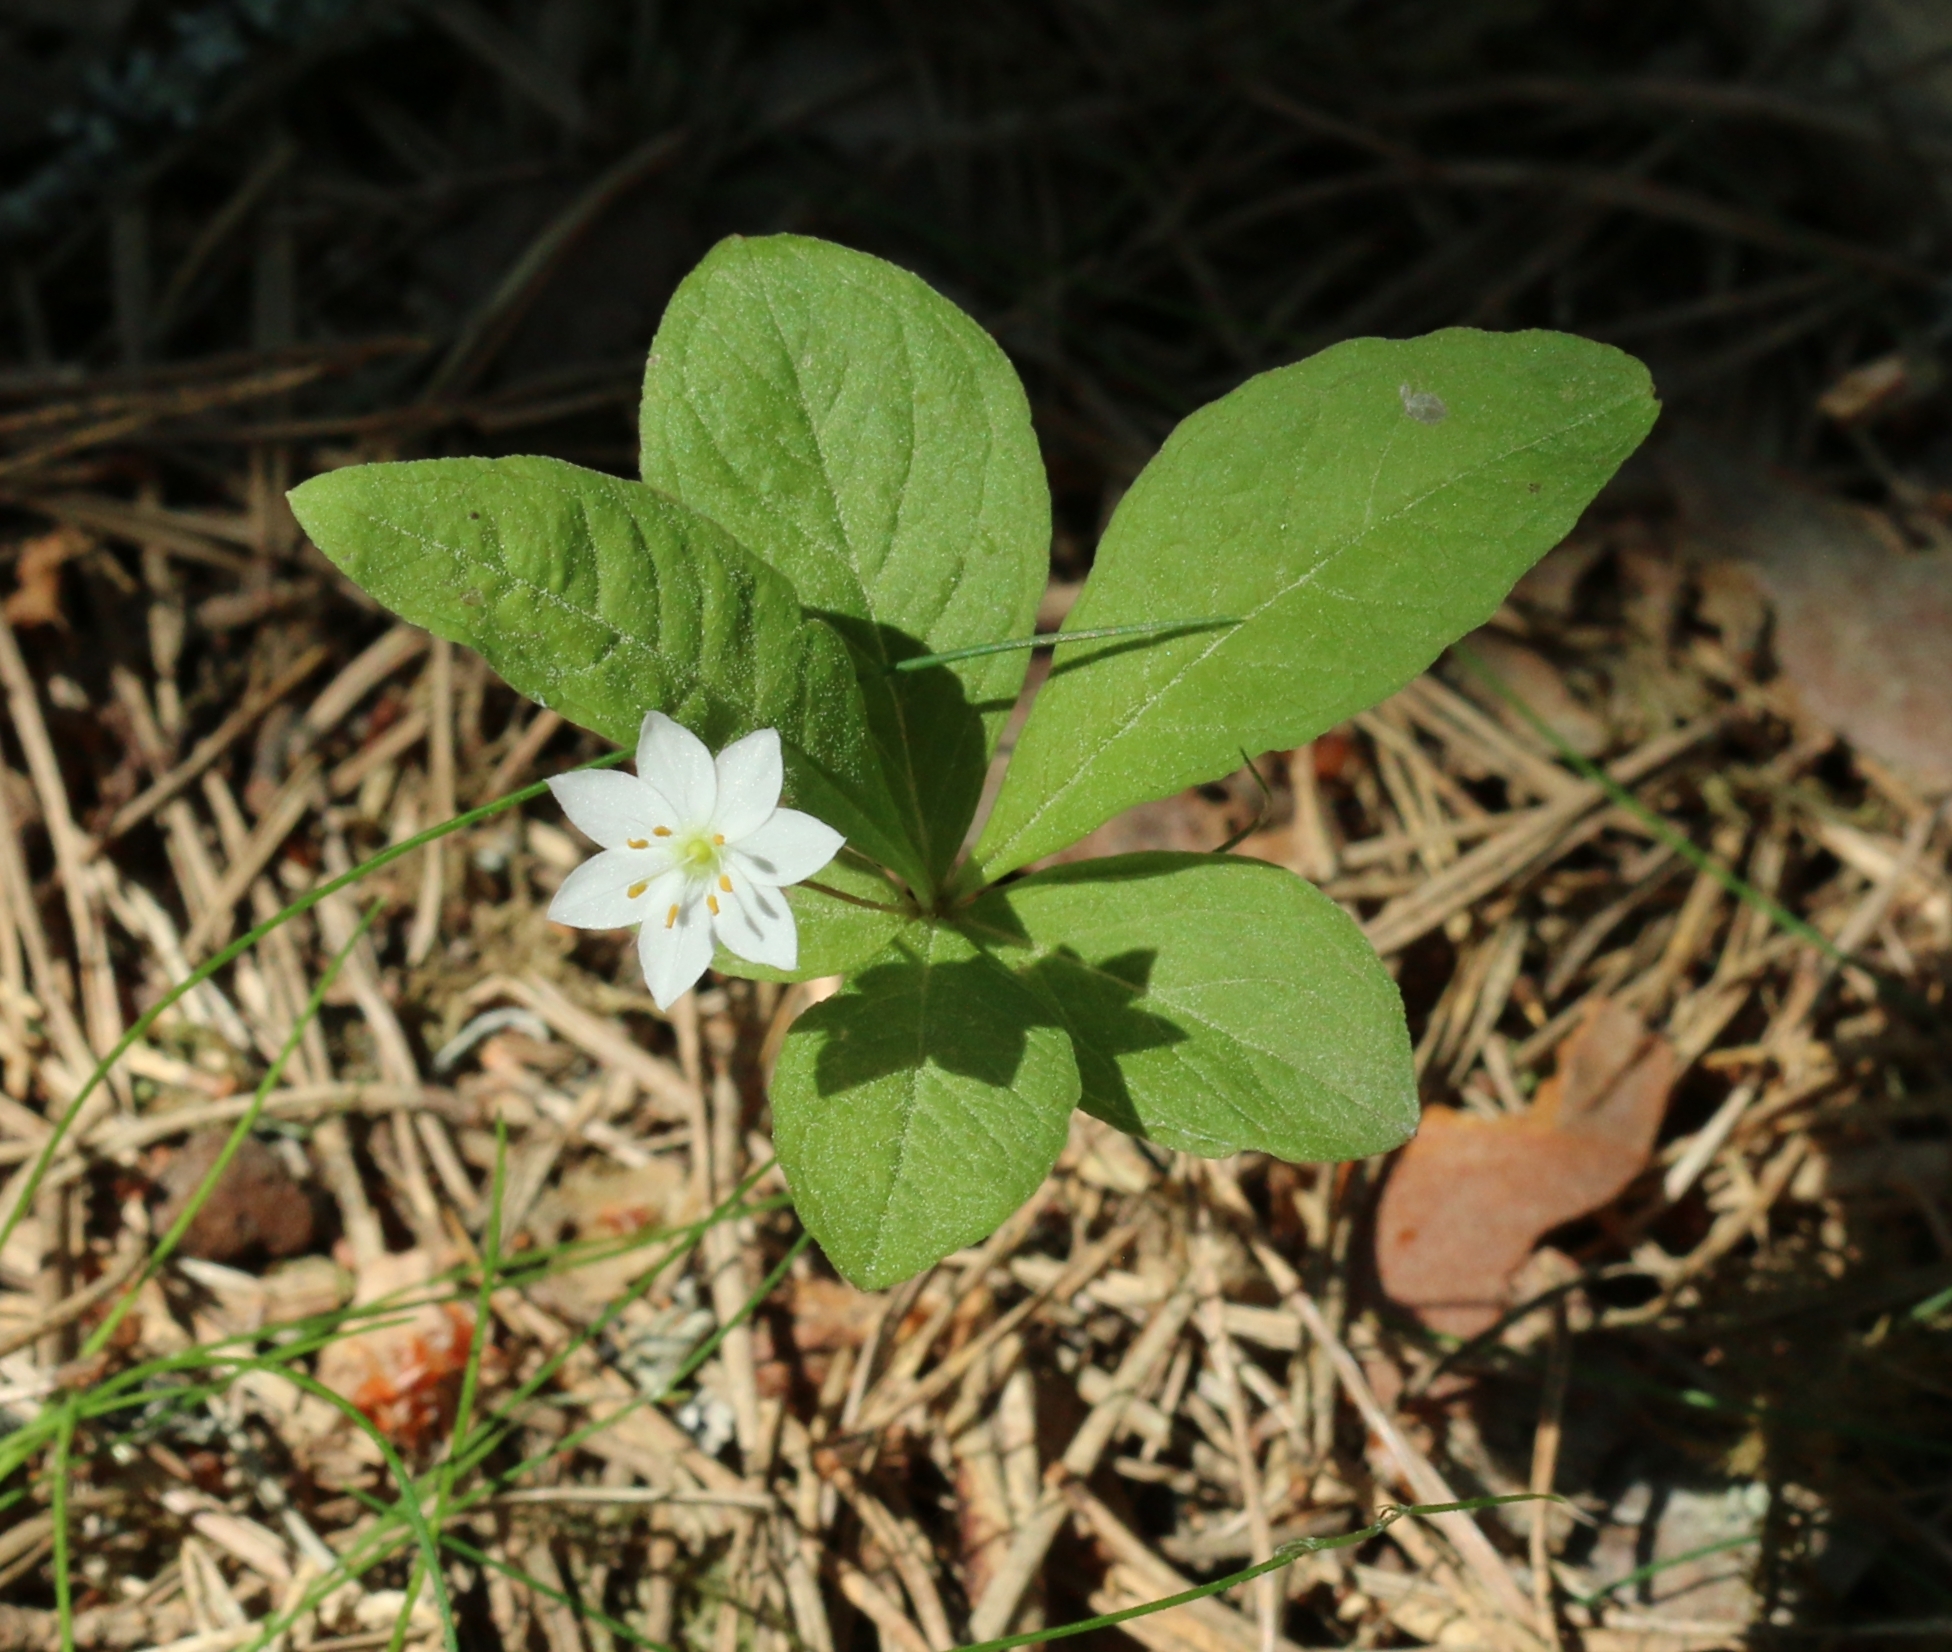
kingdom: Plantae
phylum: Tracheophyta
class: Magnoliopsida
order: Ericales
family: Primulaceae
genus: Lysimachia
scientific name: Lysimachia europaea
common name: Arctic starflower
